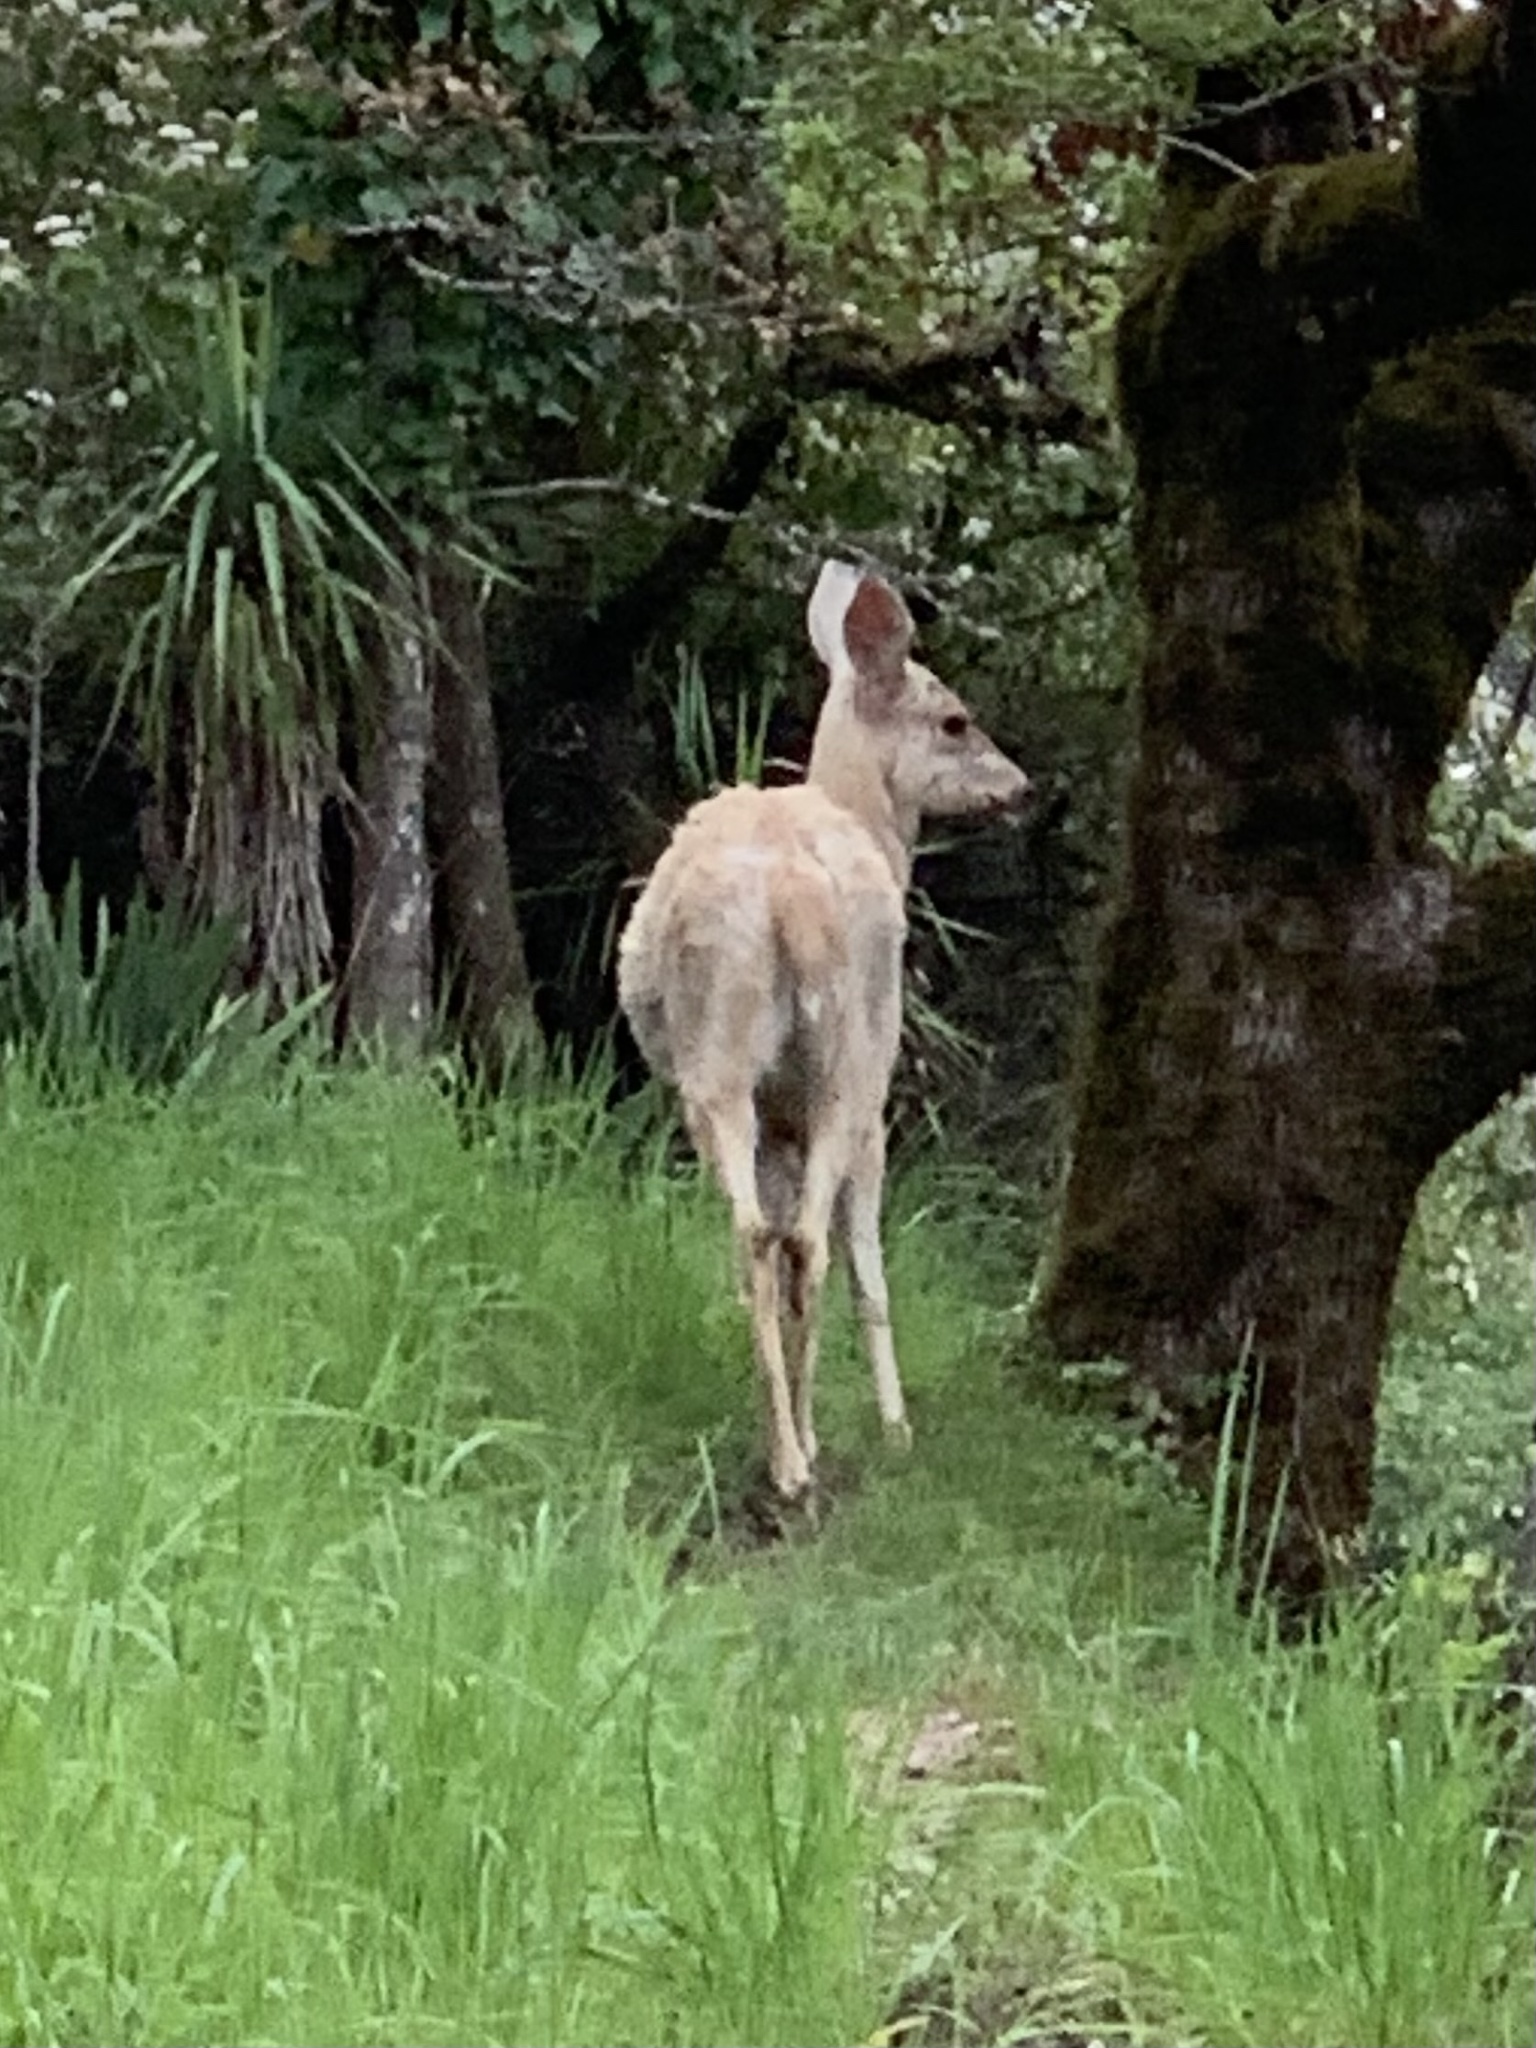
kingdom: Animalia
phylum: Chordata
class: Mammalia
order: Artiodactyla
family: Cervidae
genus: Odocoileus
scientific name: Odocoileus hemionus
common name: Mule deer
